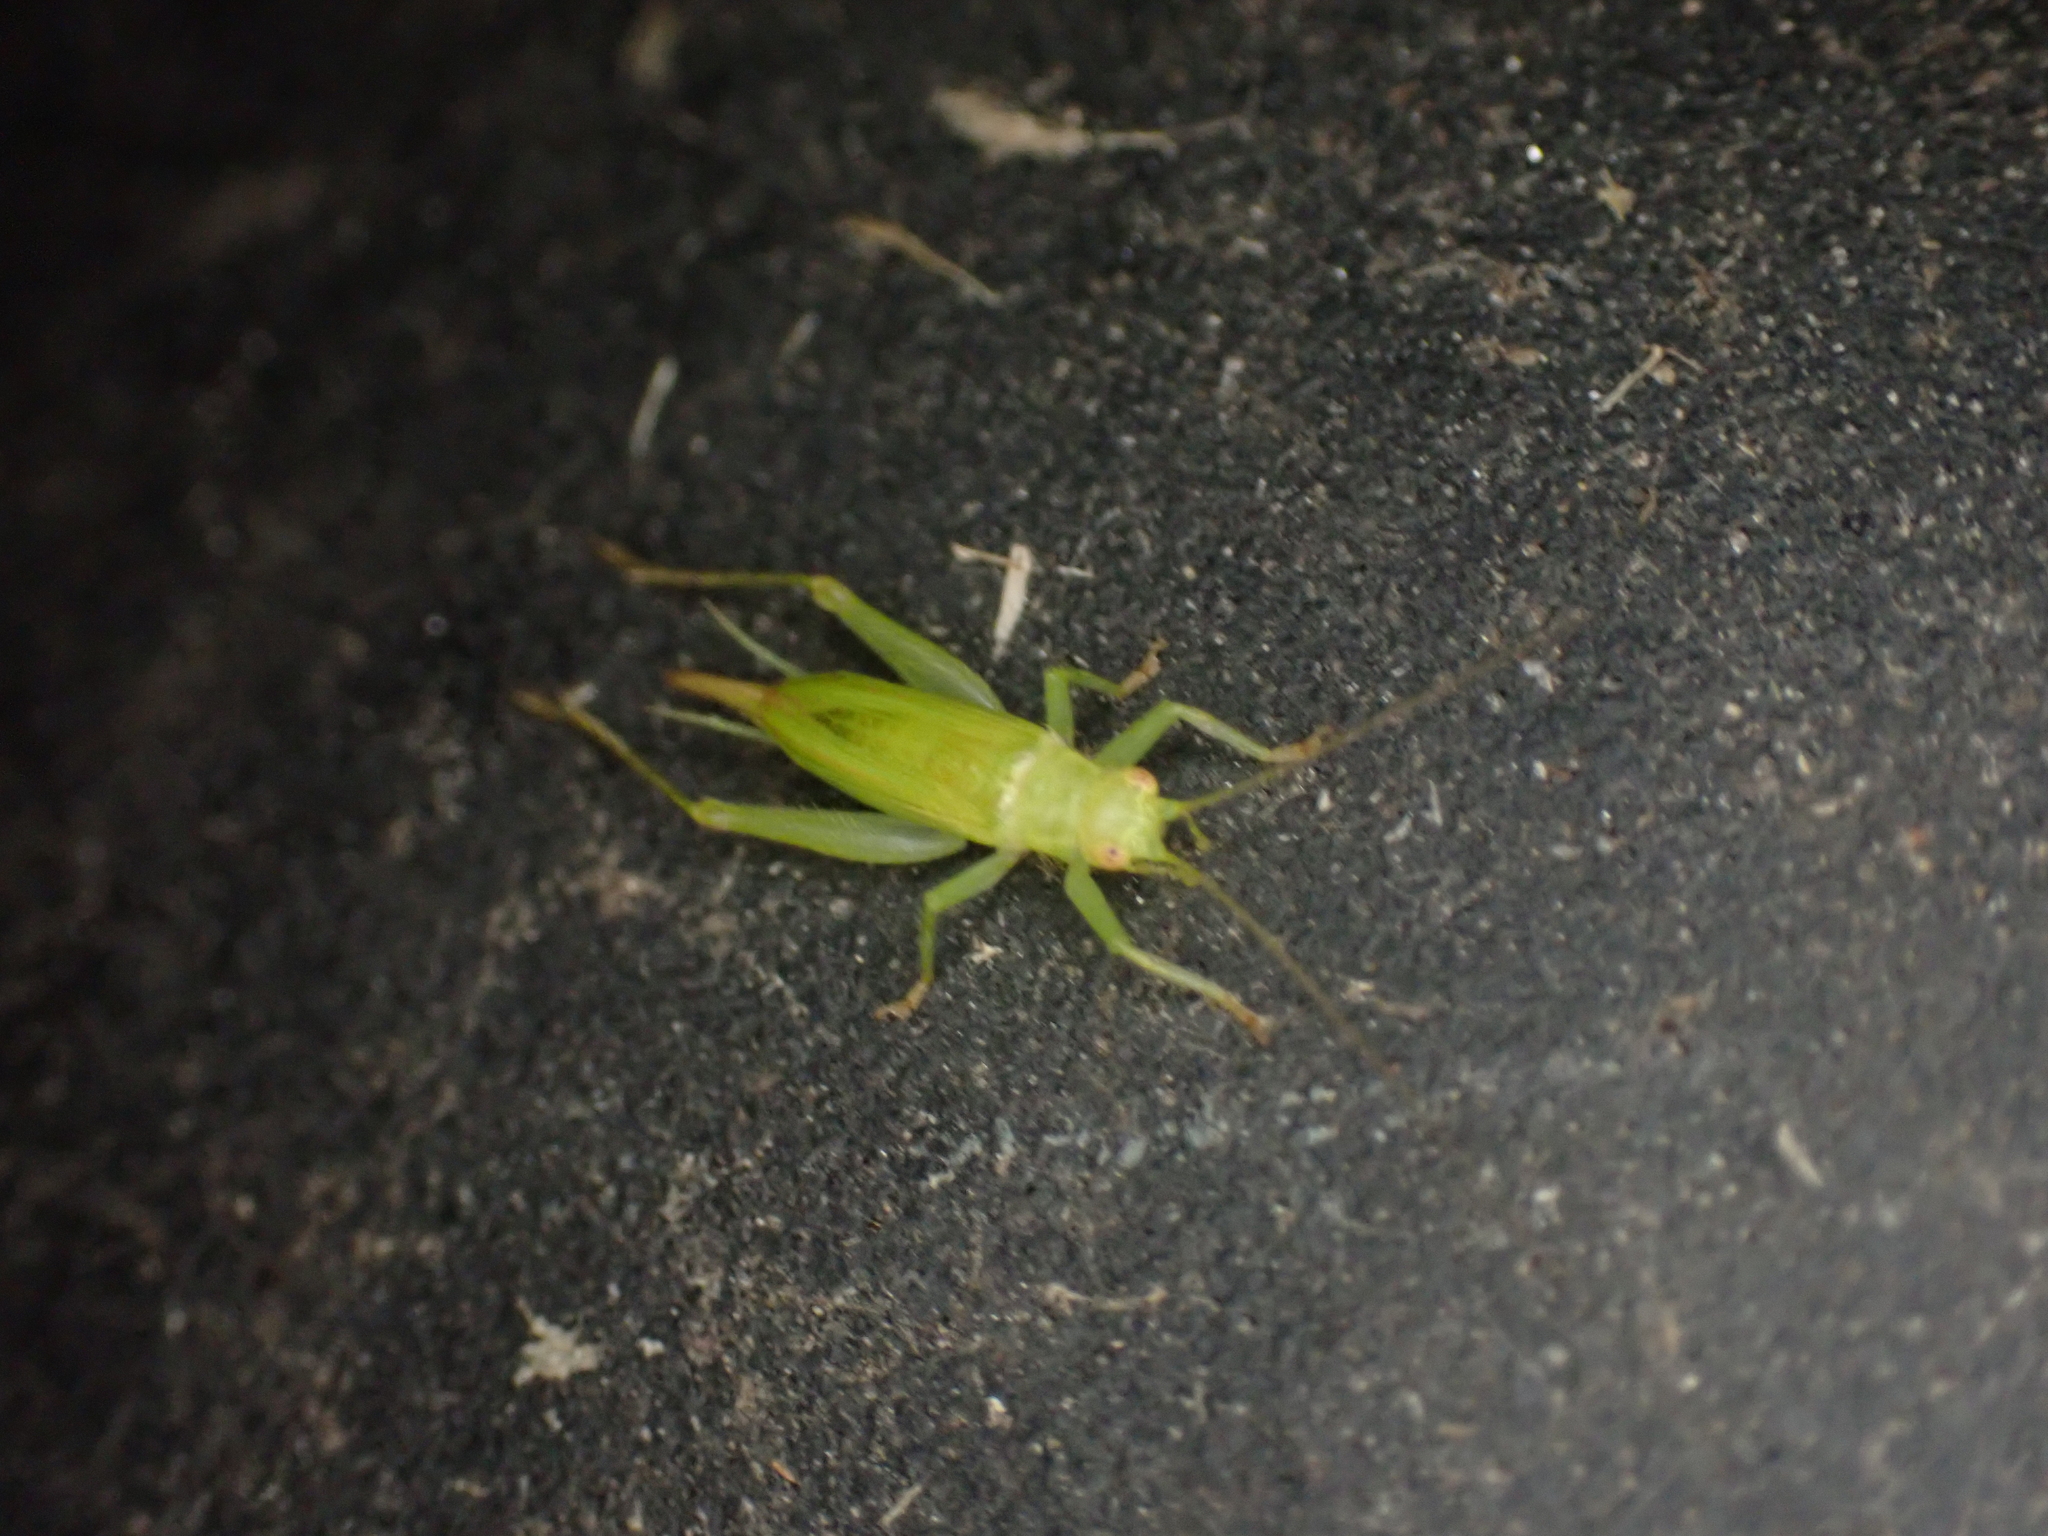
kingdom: Animalia
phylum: Arthropoda
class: Insecta
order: Orthoptera
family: Trigonidiidae
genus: Cyrtoxipha
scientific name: Cyrtoxipha columbiana
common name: Columbian trig
